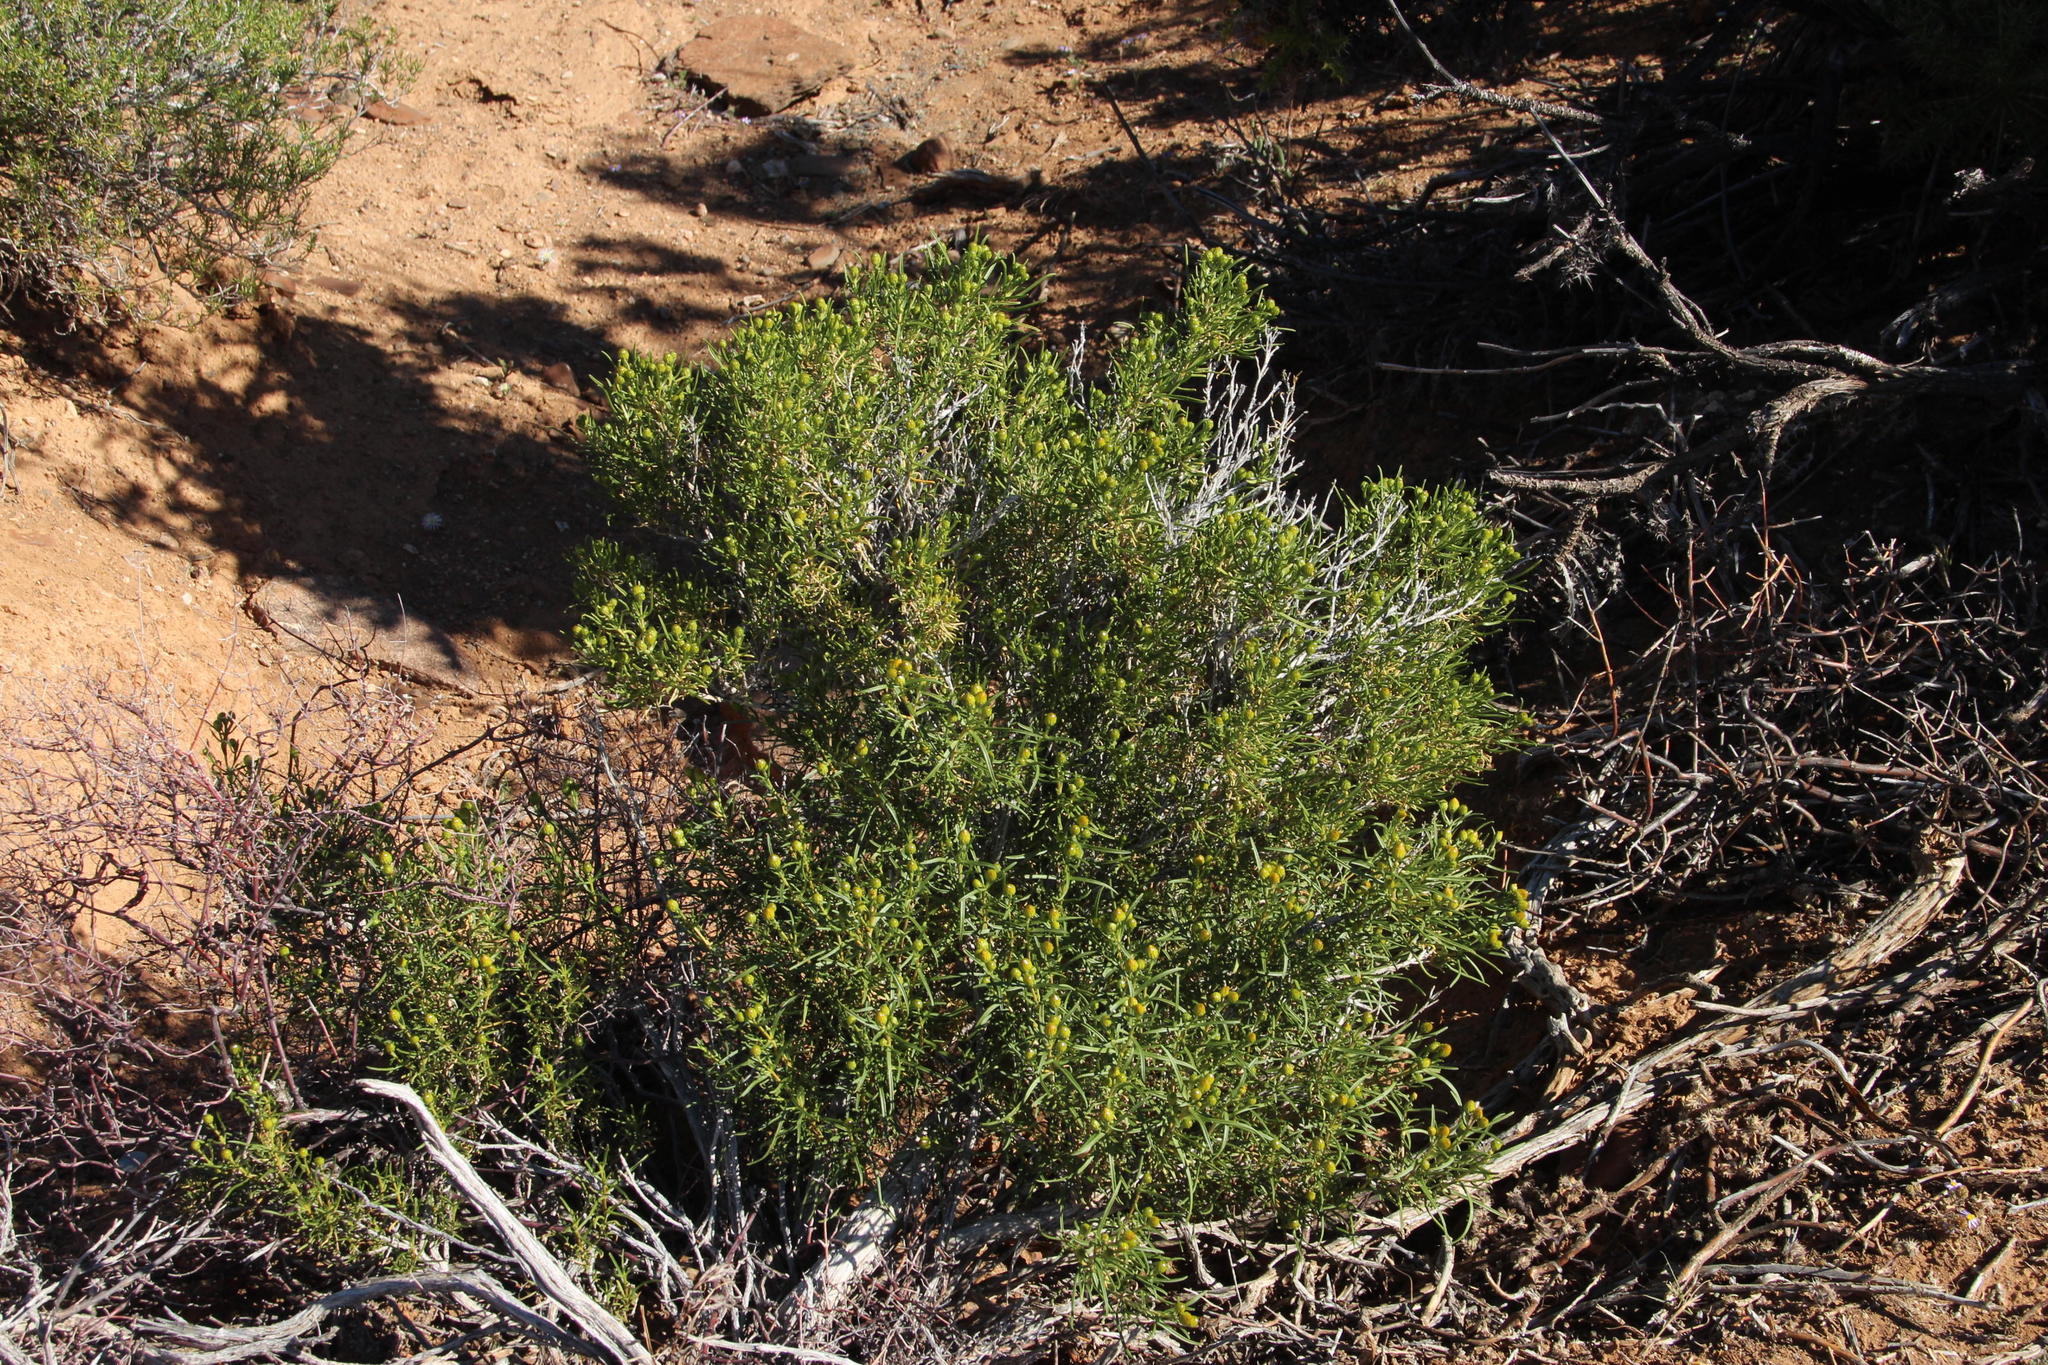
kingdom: Plantae
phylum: Tracheophyta
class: Magnoliopsida
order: Asterales
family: Asteraceae
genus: Pteronia
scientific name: Pteronia pallens
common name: Scholtzbush
